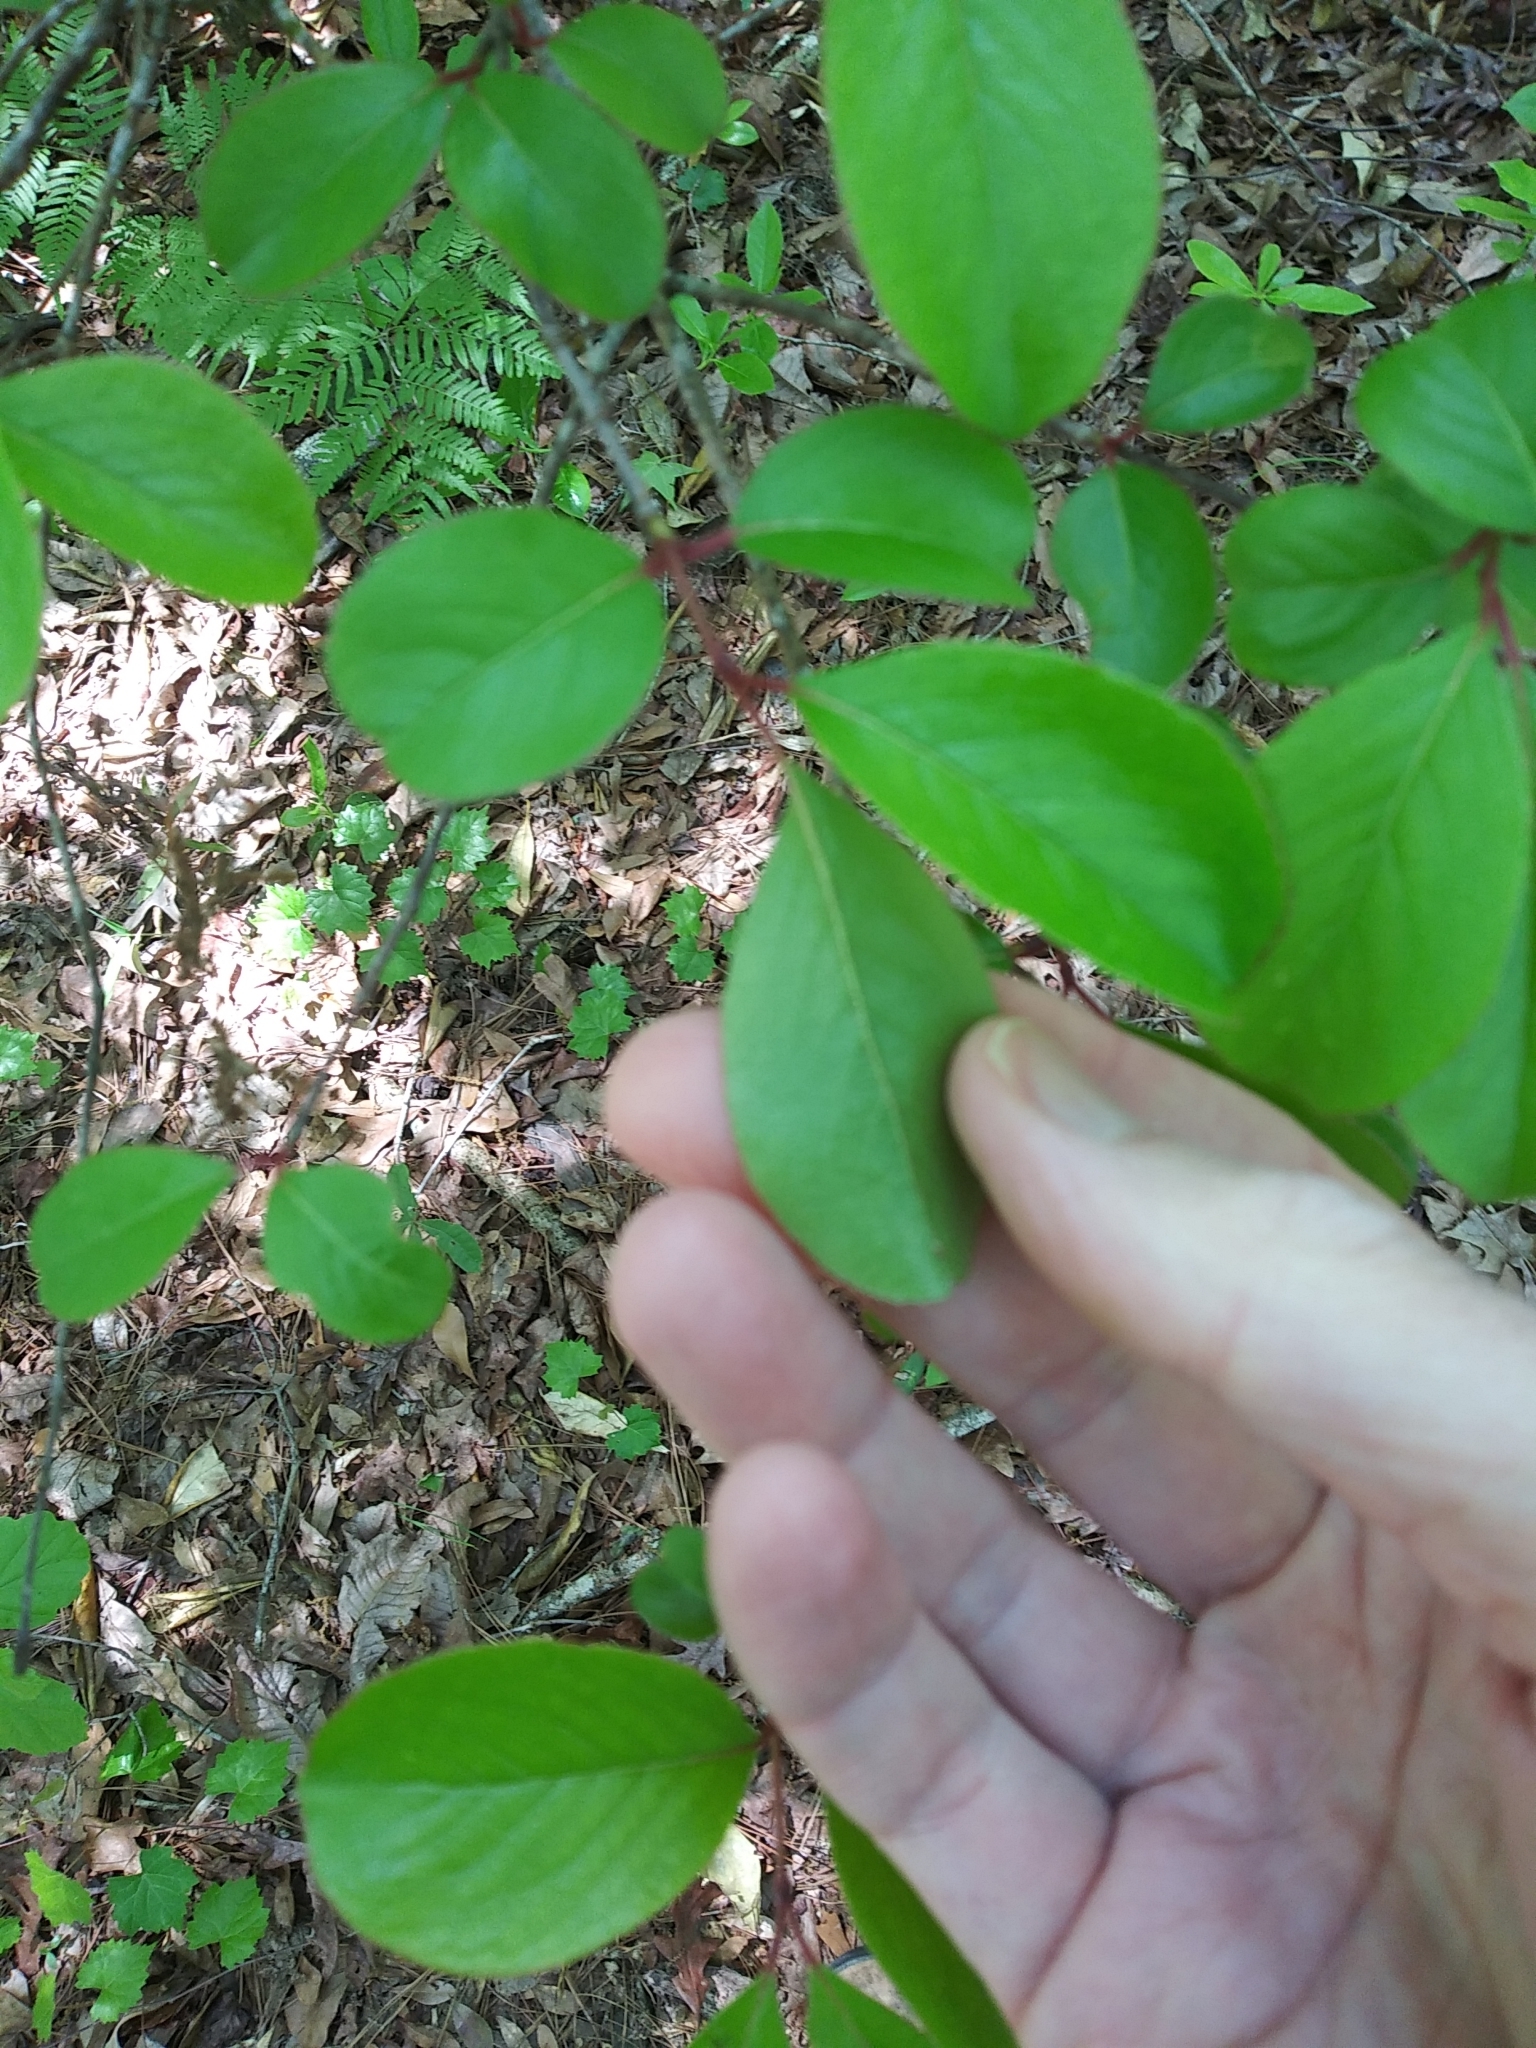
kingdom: Plantae
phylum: Tracheophyta
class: Magnoliopsida
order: Dipsacales
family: Viburnaceae
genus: Viburnum
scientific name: Viburnum rufidulum
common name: Blue haw
